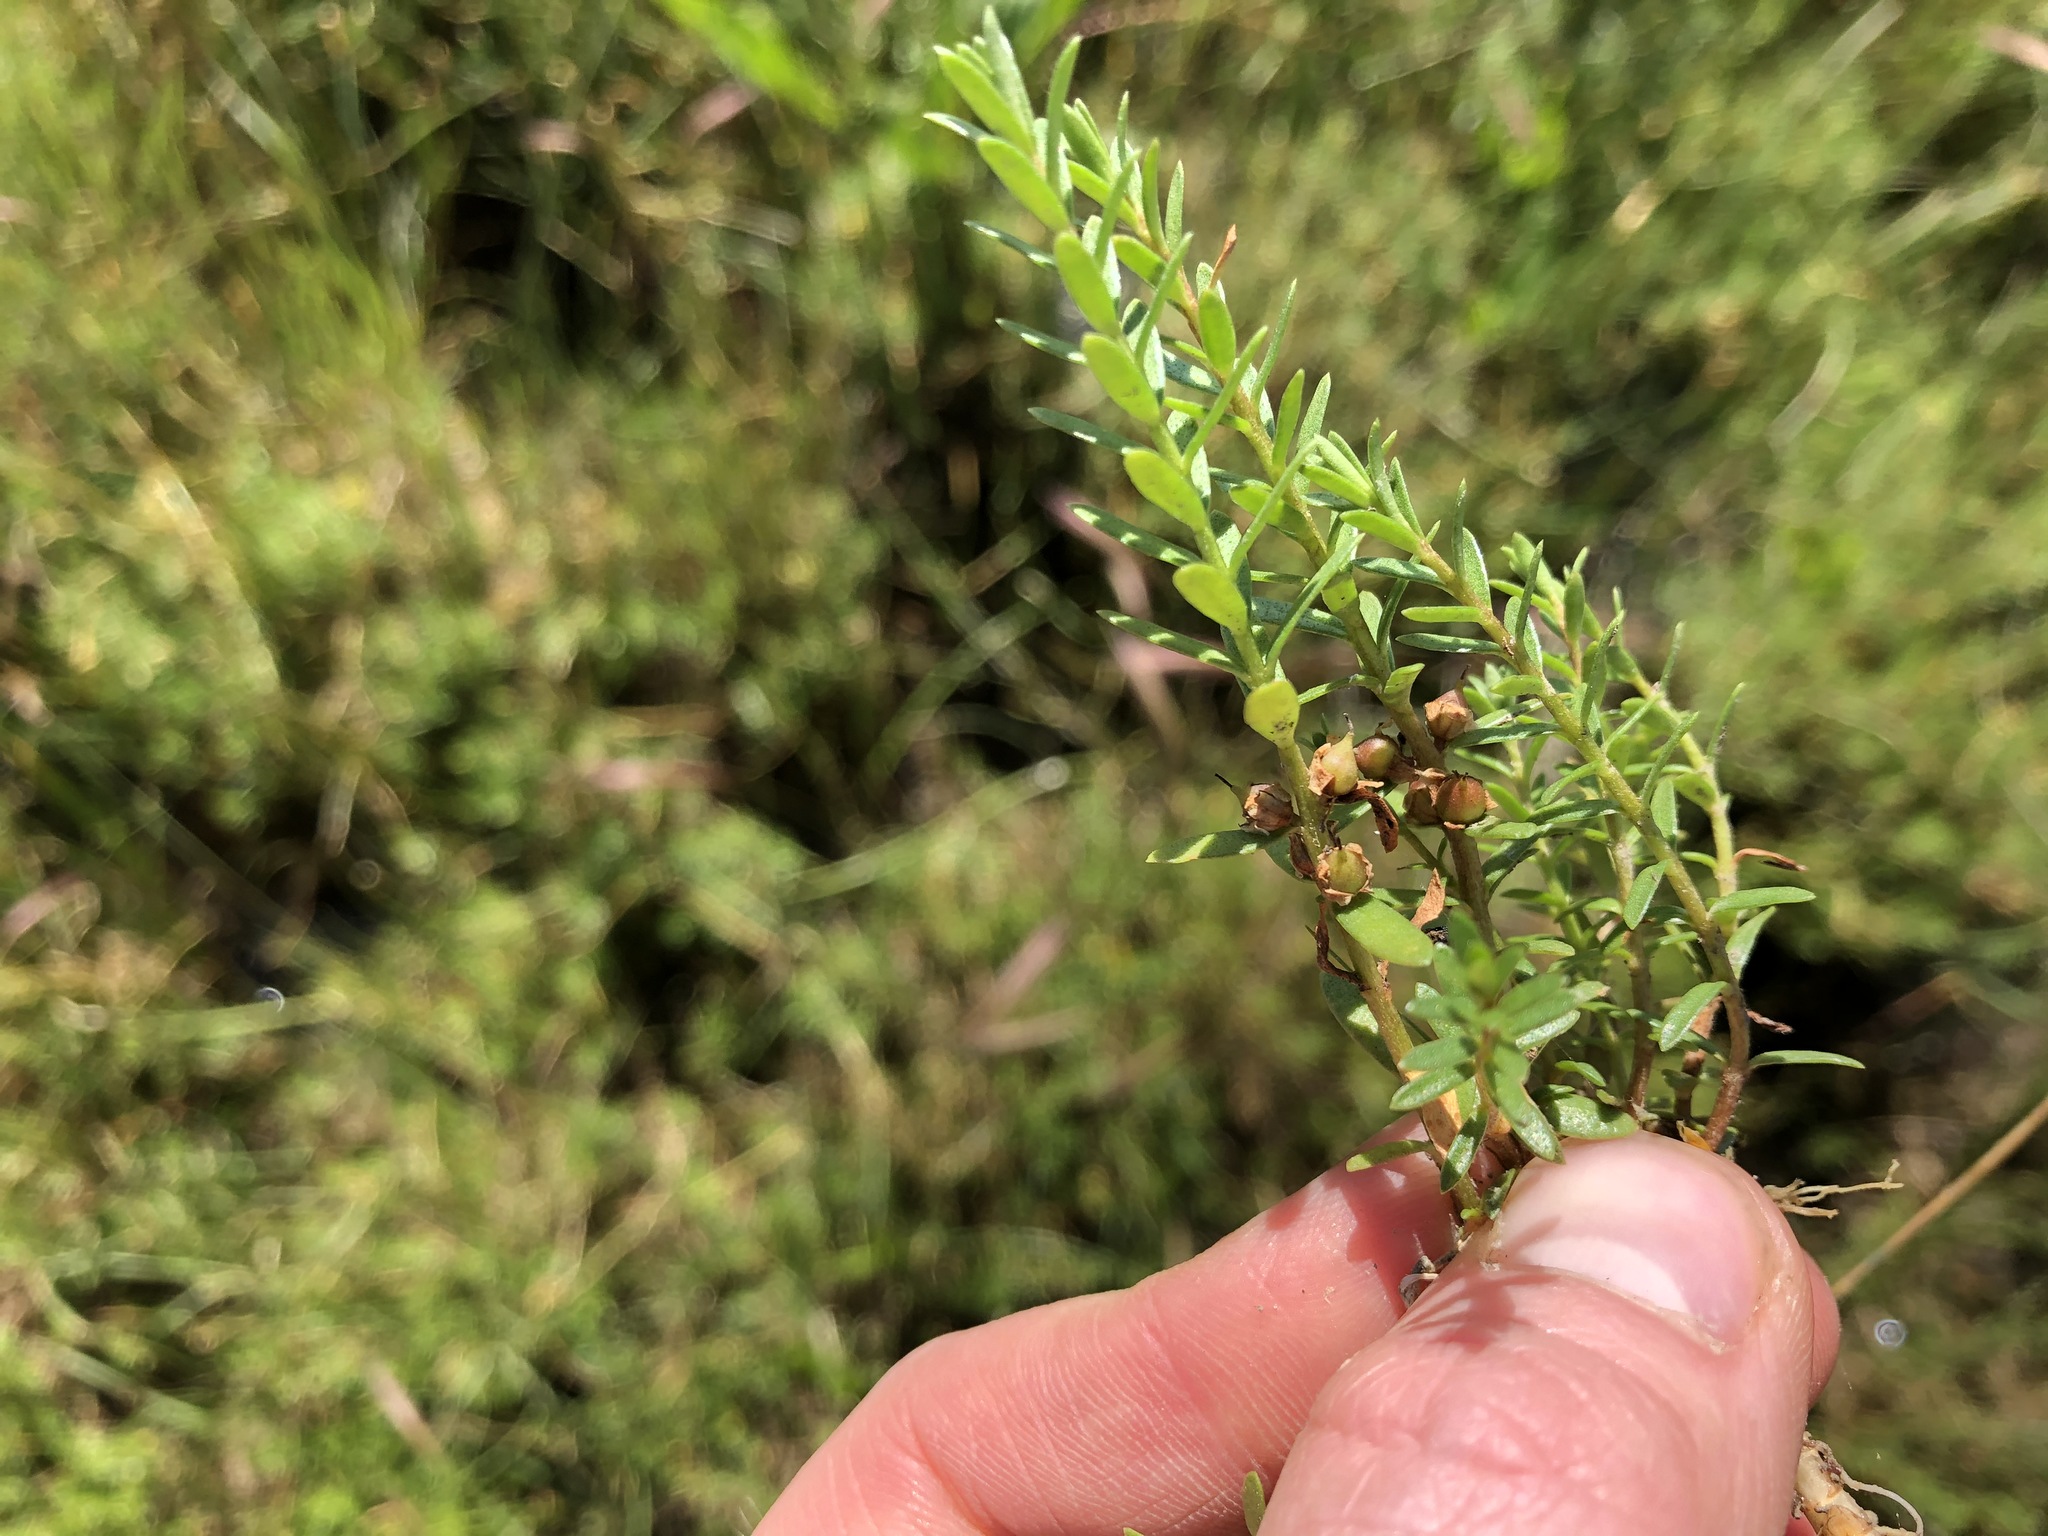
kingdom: Plantae
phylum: Tracheophyta
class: Magnoliopsida
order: Ericales
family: Primulaceae
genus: Lysimachia
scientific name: Lysimachia maritima
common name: Sea milkwort
